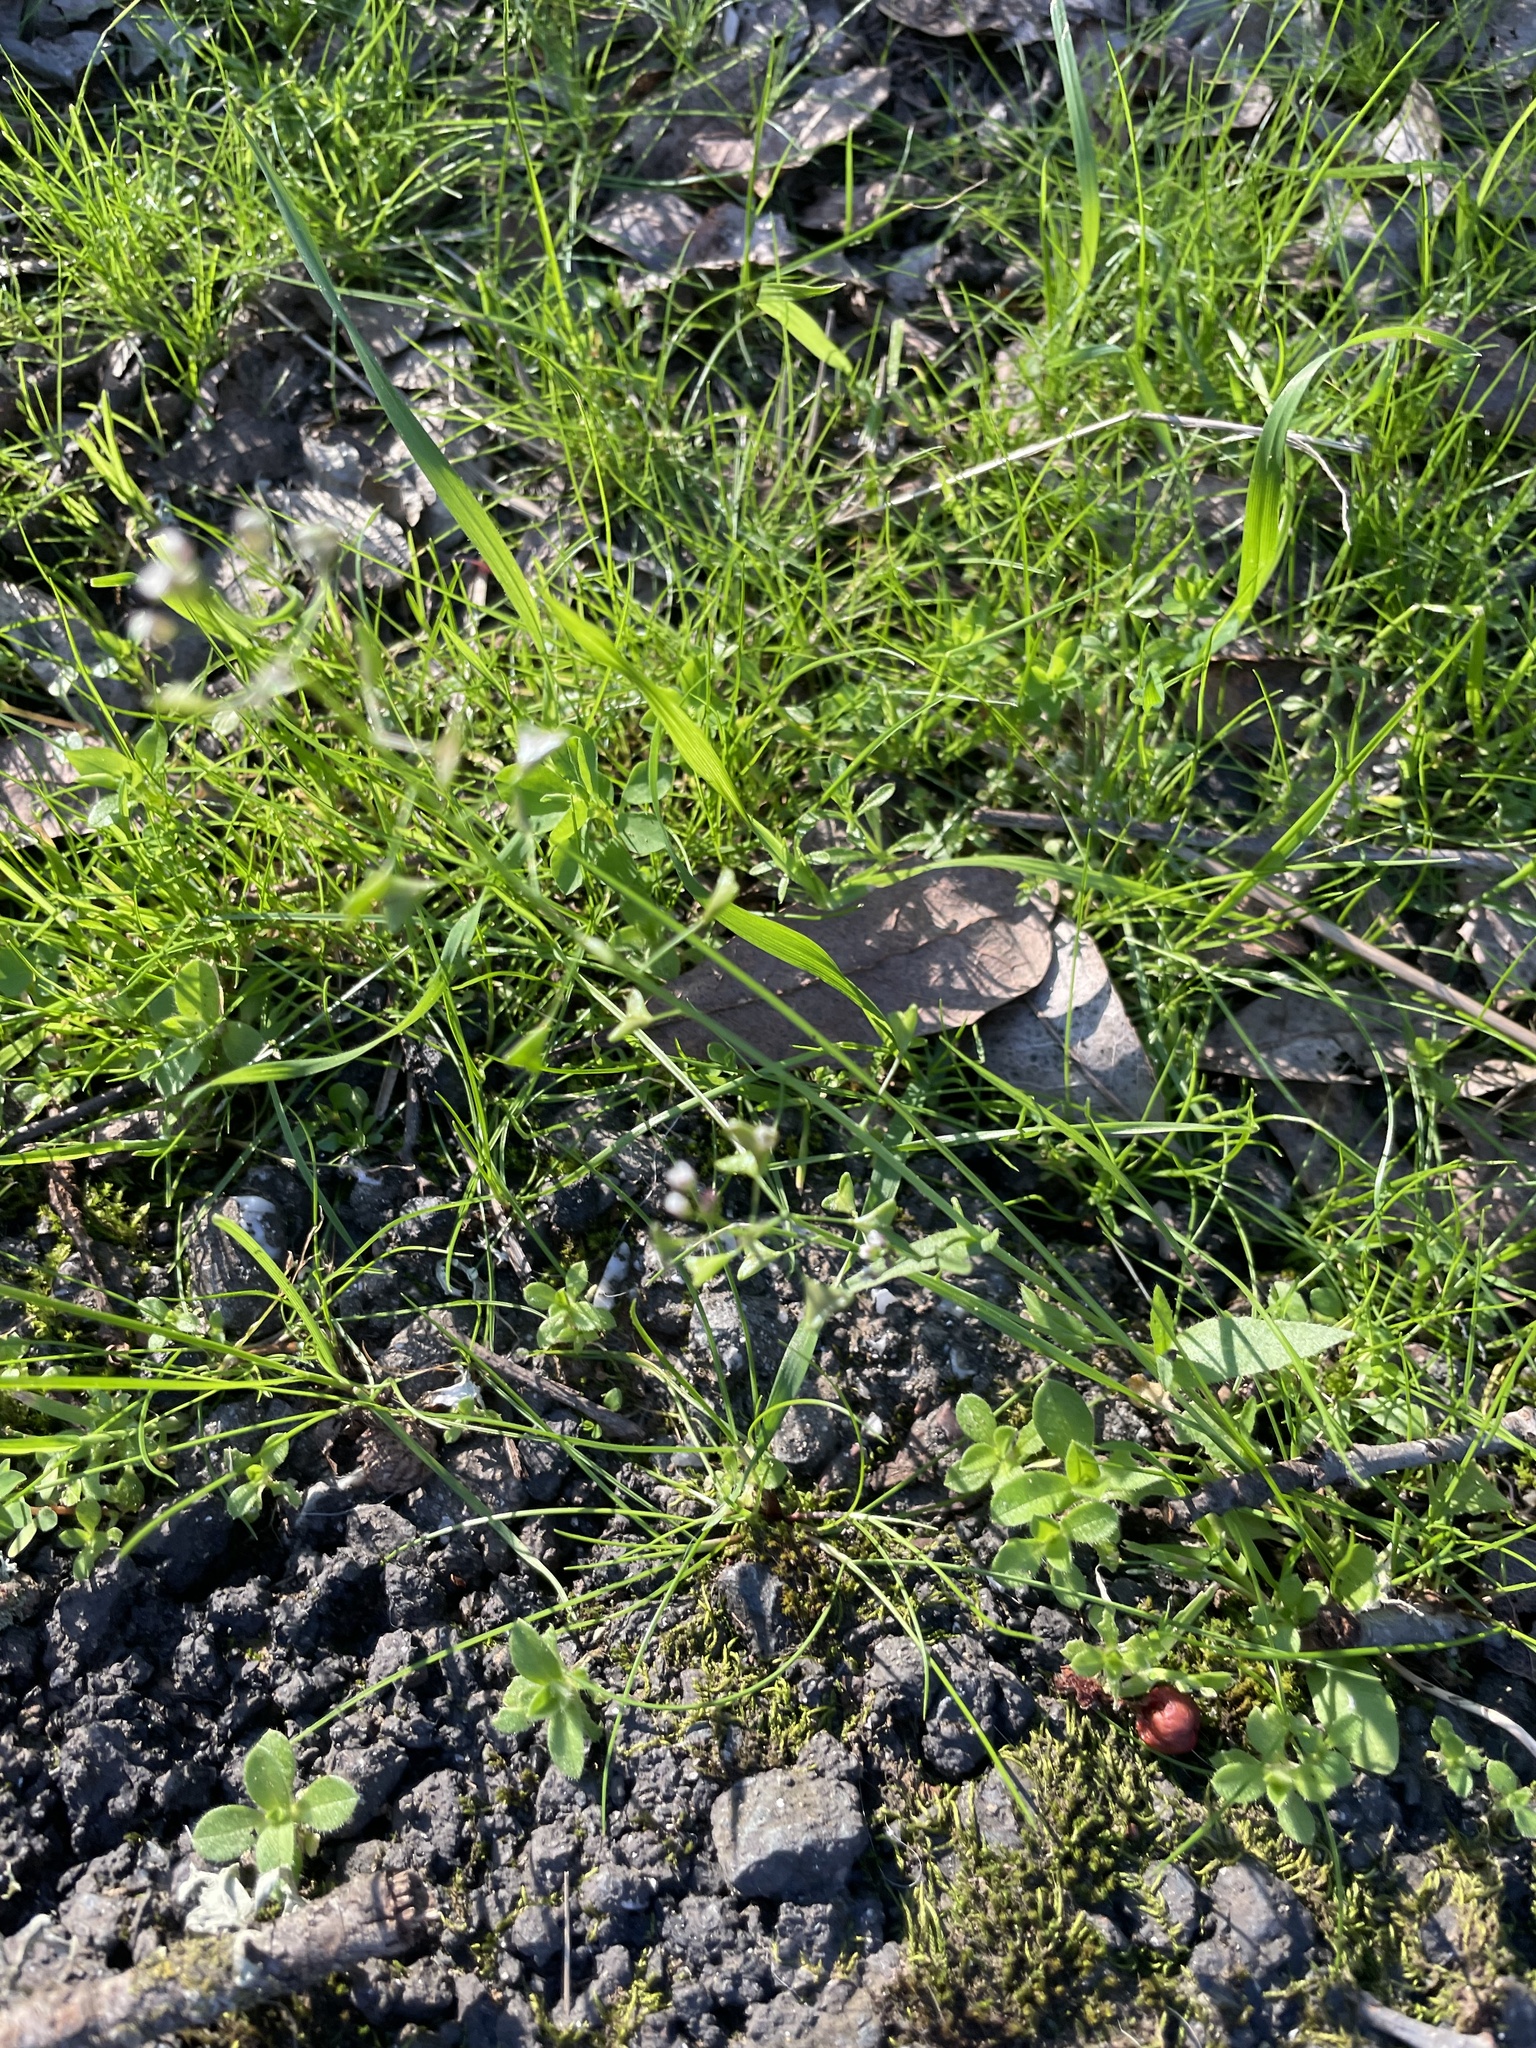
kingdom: Plantae
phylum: Tracheophyta
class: Magnoliopsida
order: Brassicales
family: Brassicaceae
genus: Capsella
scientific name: Capsella bursa-pastoris
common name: Shepherd's purse
